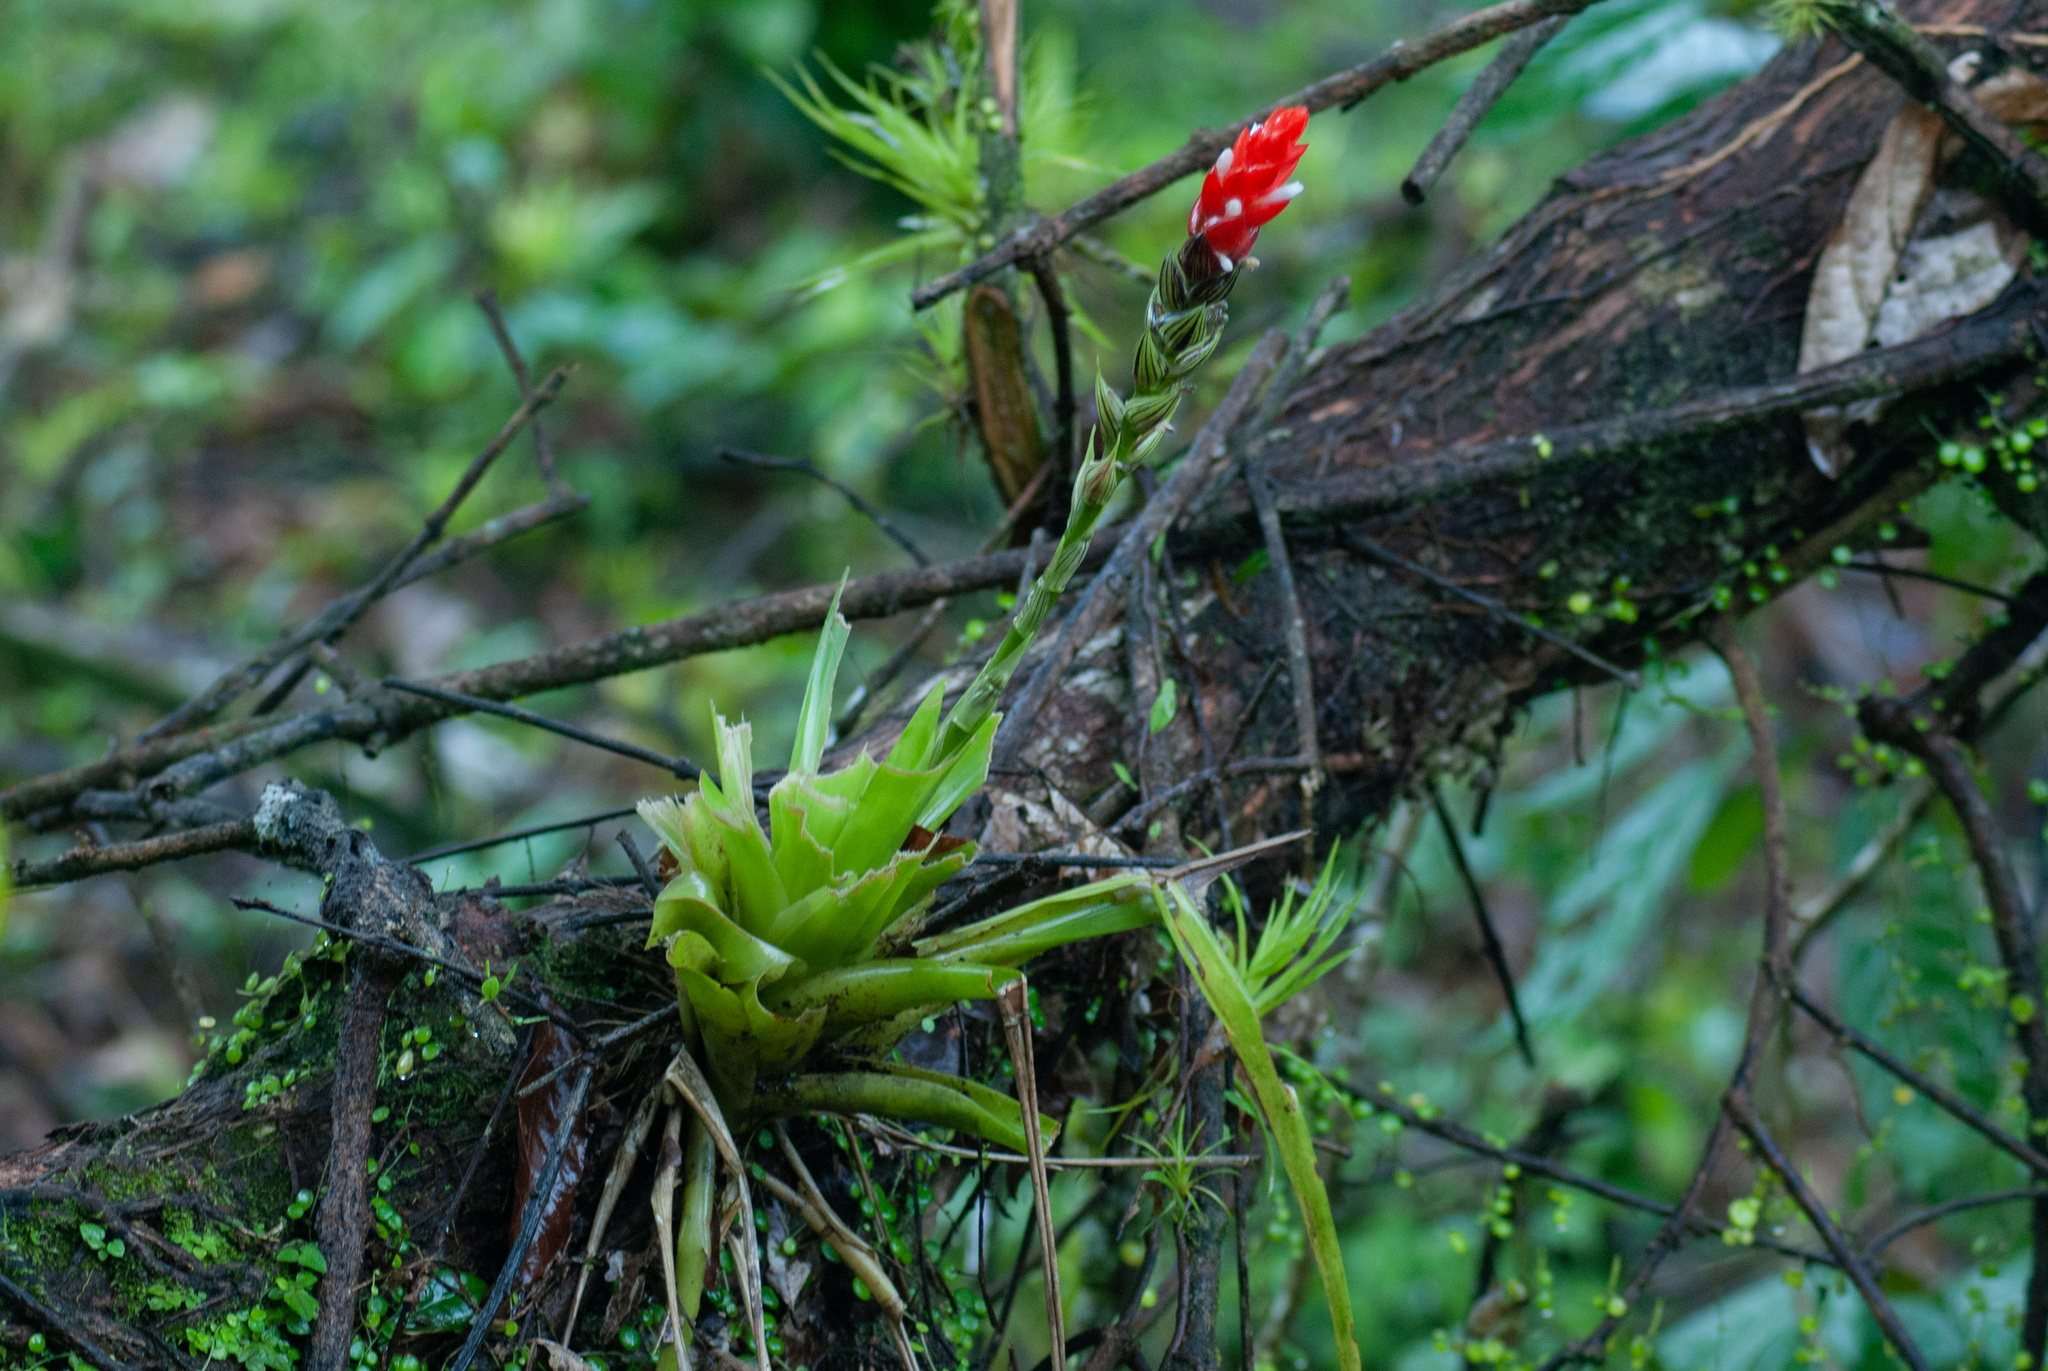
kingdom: Plantae
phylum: Tracheophyta
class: Liliopsida
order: Poales
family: Bromeliaceae
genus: Guzmania
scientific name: Guzmania monostachia
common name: West indian tufted airplant
